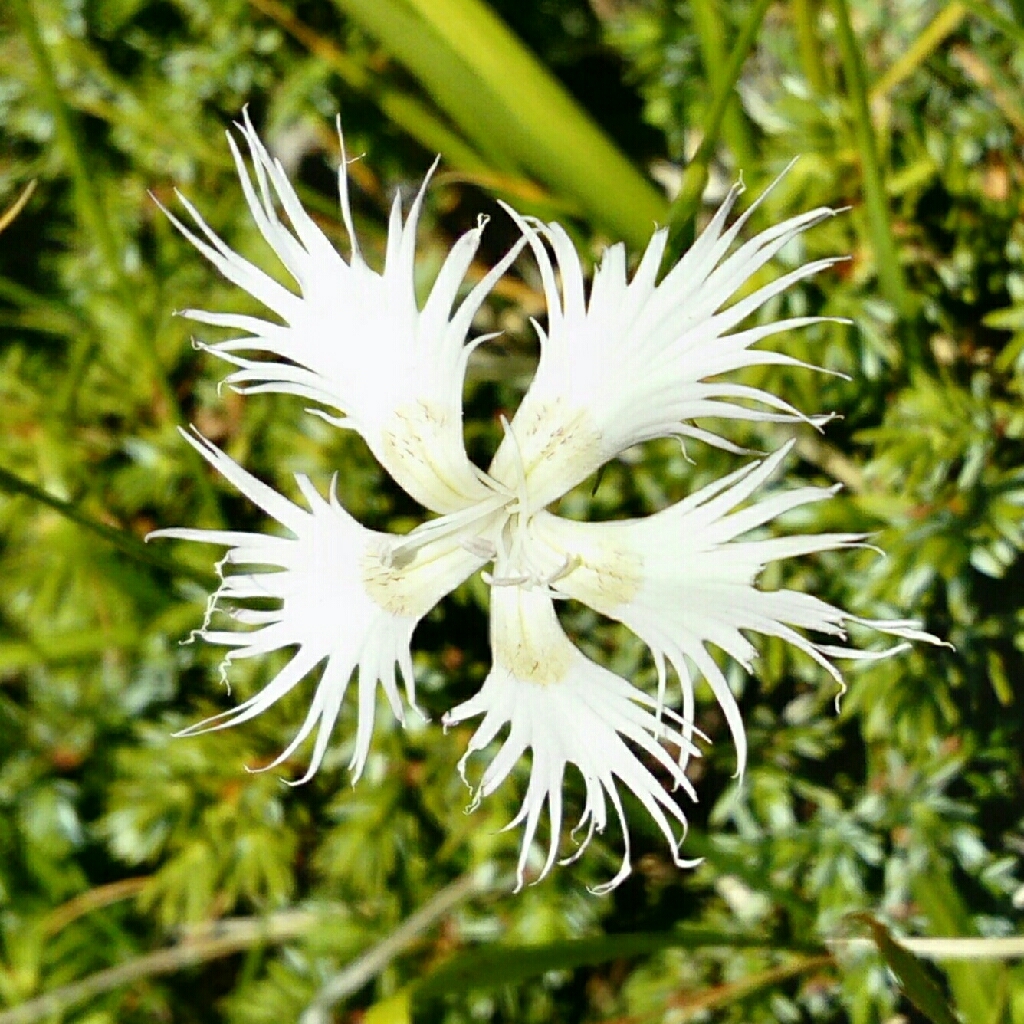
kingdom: Plantae
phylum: Tracheophyta
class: Magnoliopsida
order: Caryophyllales
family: Caryophyllaceae
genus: Dianthus
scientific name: Dianthus hyssopifolius
